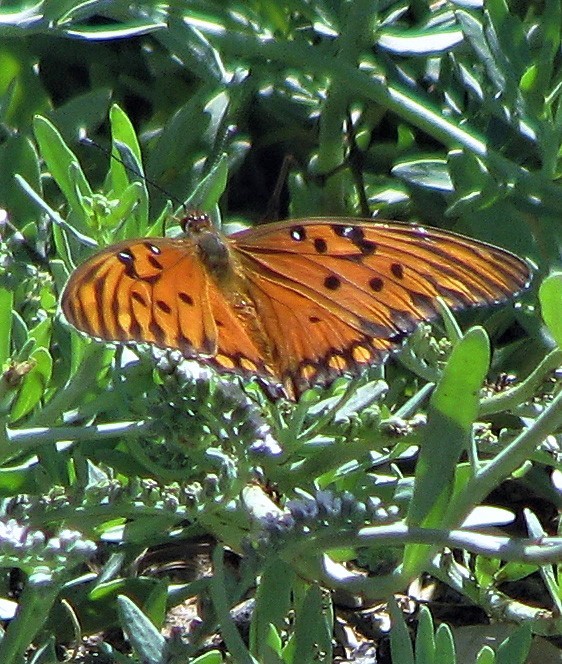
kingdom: Animalia
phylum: Arthropoda
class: Insecta
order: Lepidoptera
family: Nymphalidae
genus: Dione
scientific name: Dione vanillae
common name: Gulf fritillary
